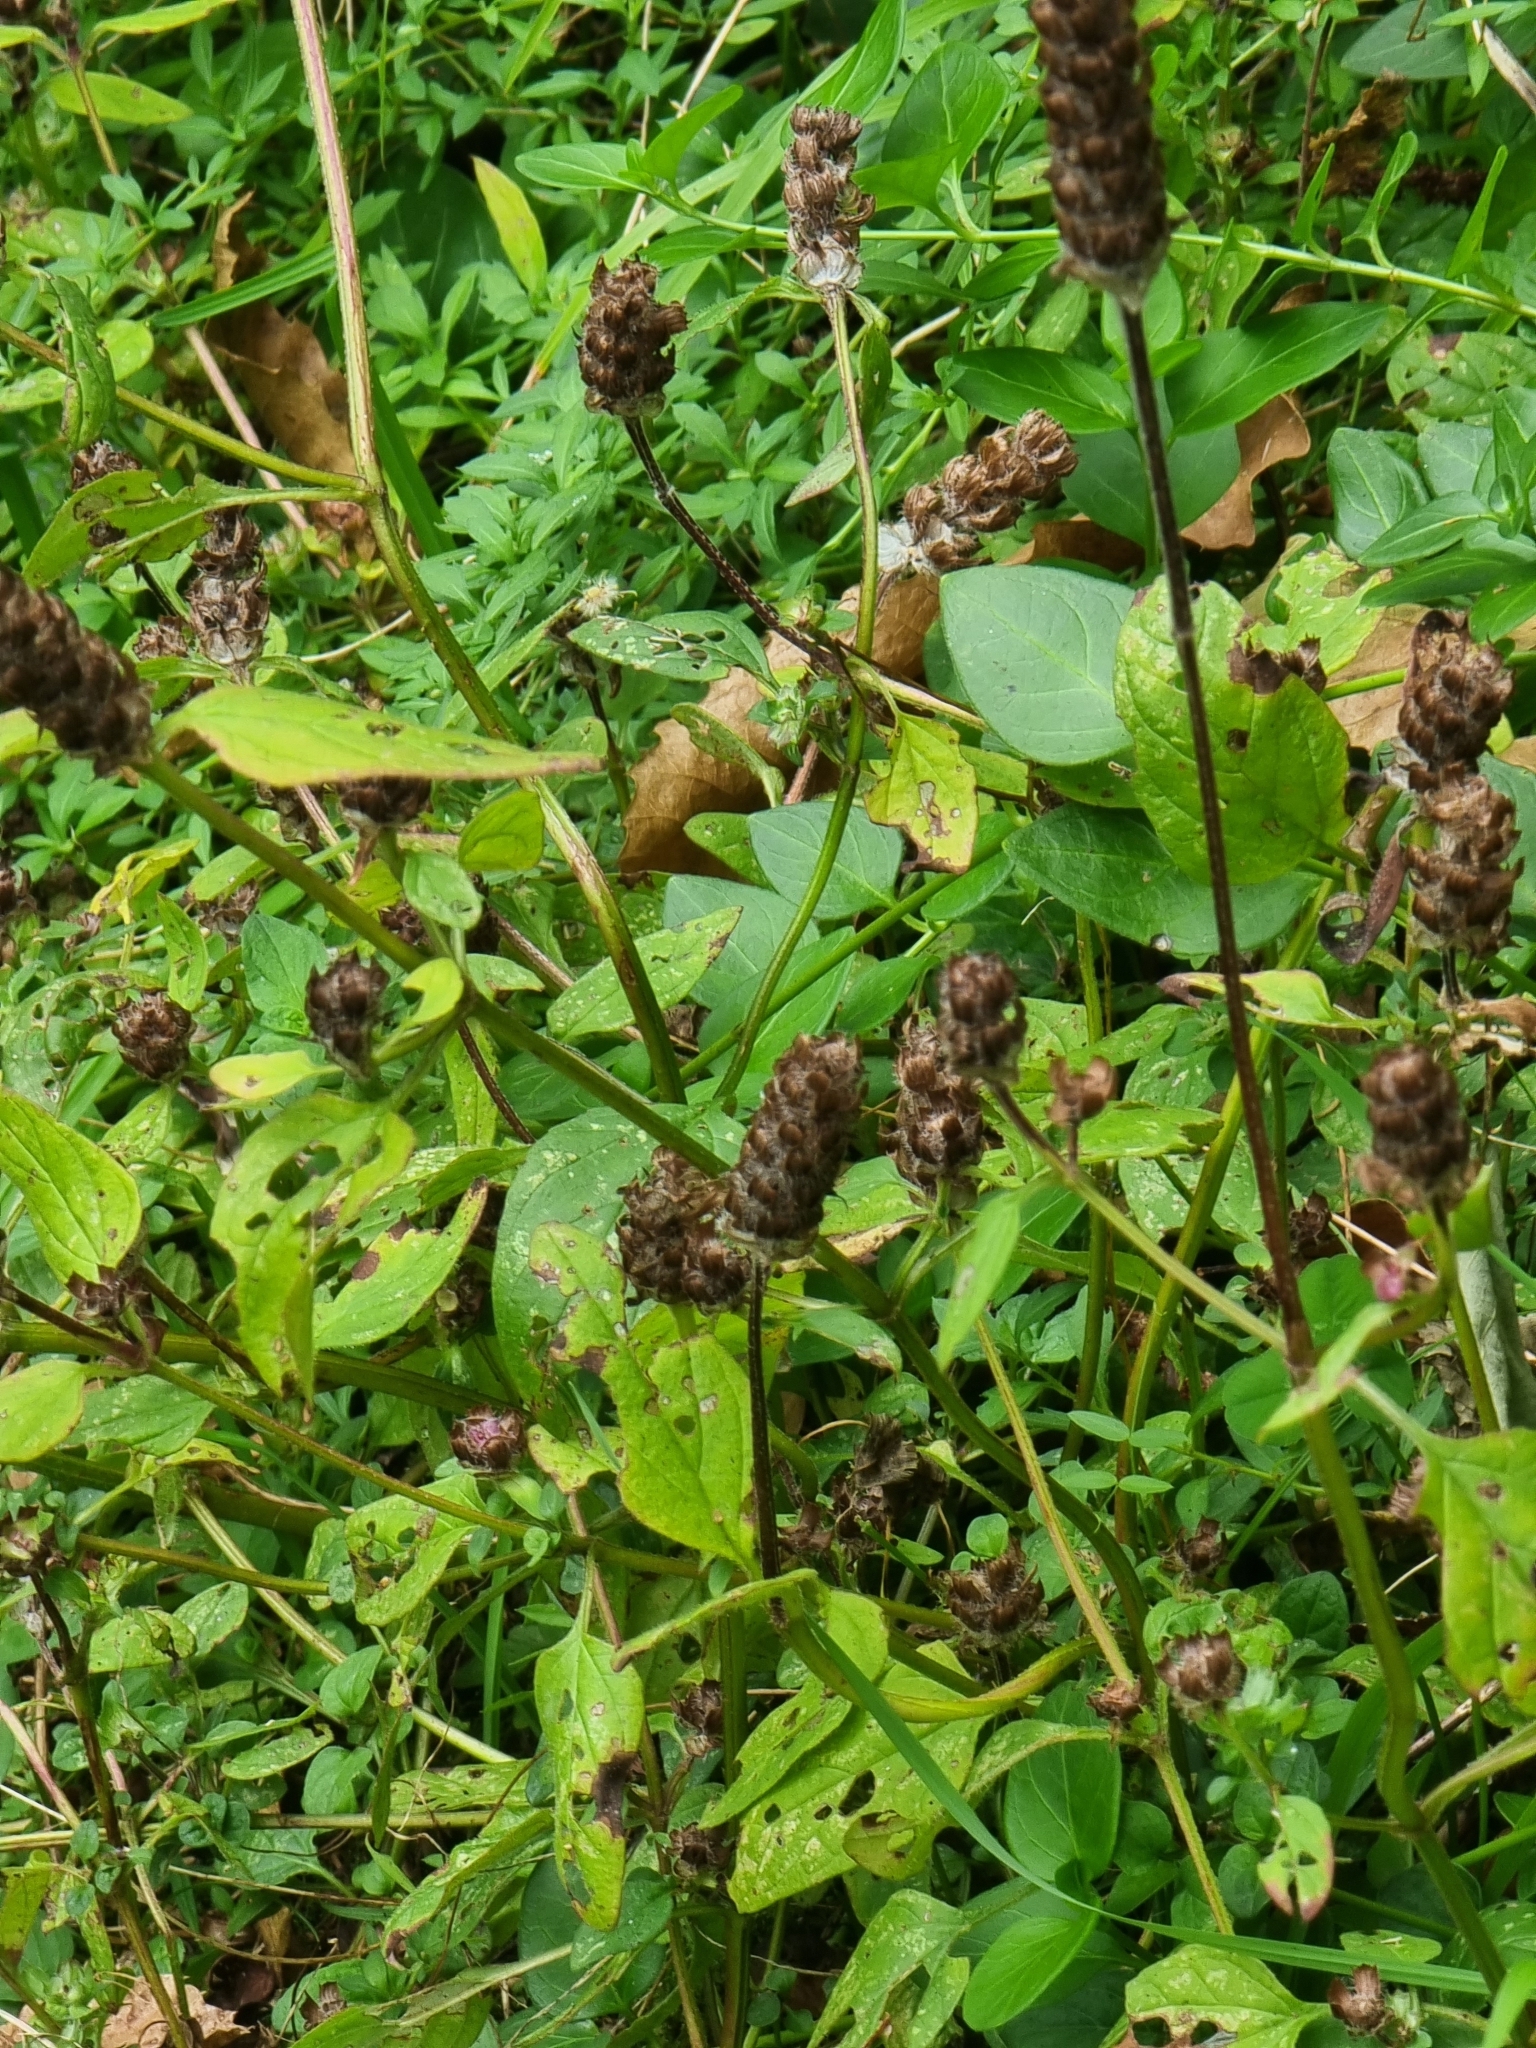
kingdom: Plantae
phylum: Tracheophyta
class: Magnoliopsida
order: Lamiales
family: Lamiaceae
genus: Prunella
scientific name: Prunella vulgaris
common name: Heal-all
